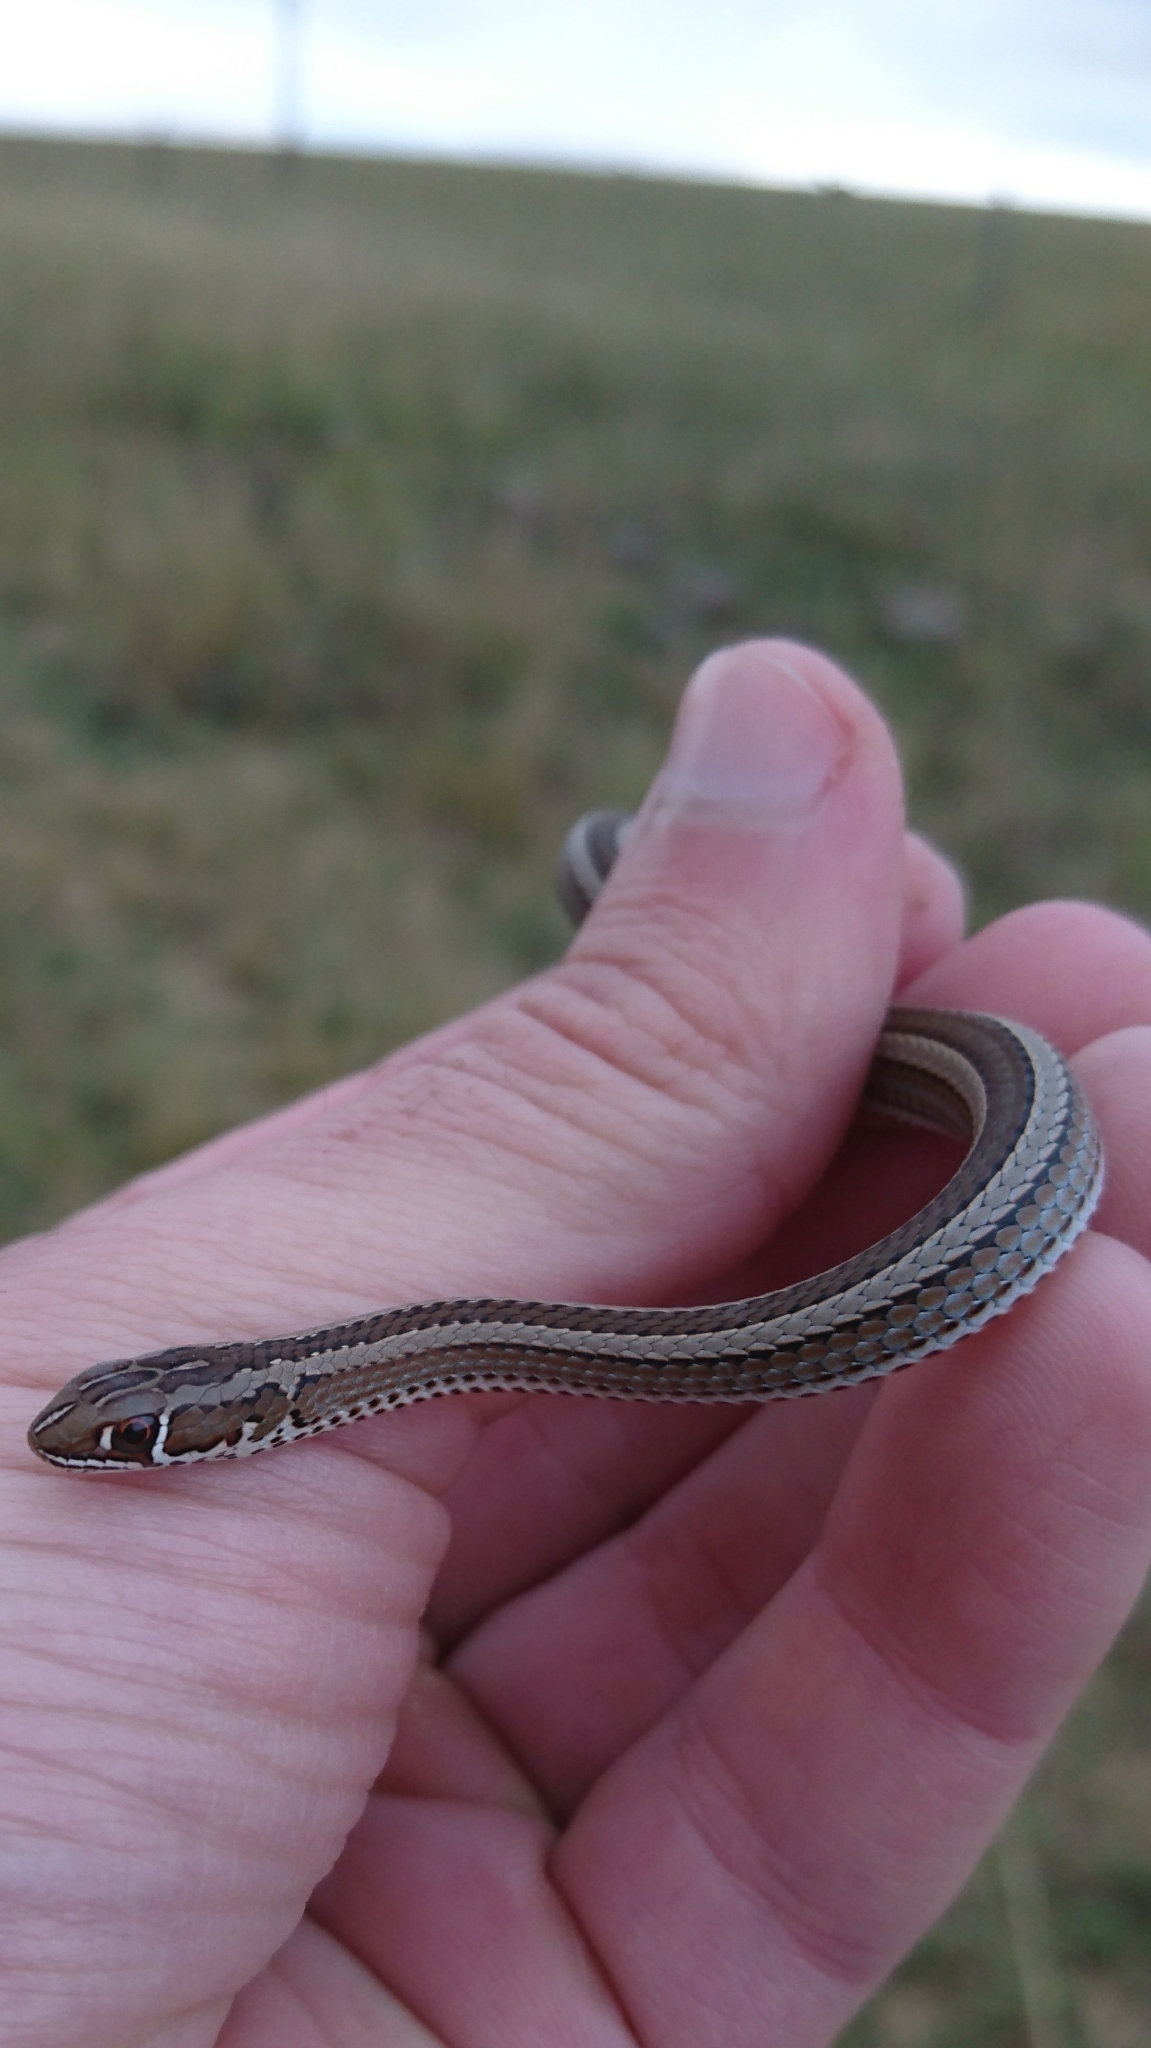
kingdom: Animalia
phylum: Chordata
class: Squamata
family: Psammophiidae
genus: Psammophis
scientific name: Psammophis crucifer
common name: Cross-marked grass snake
